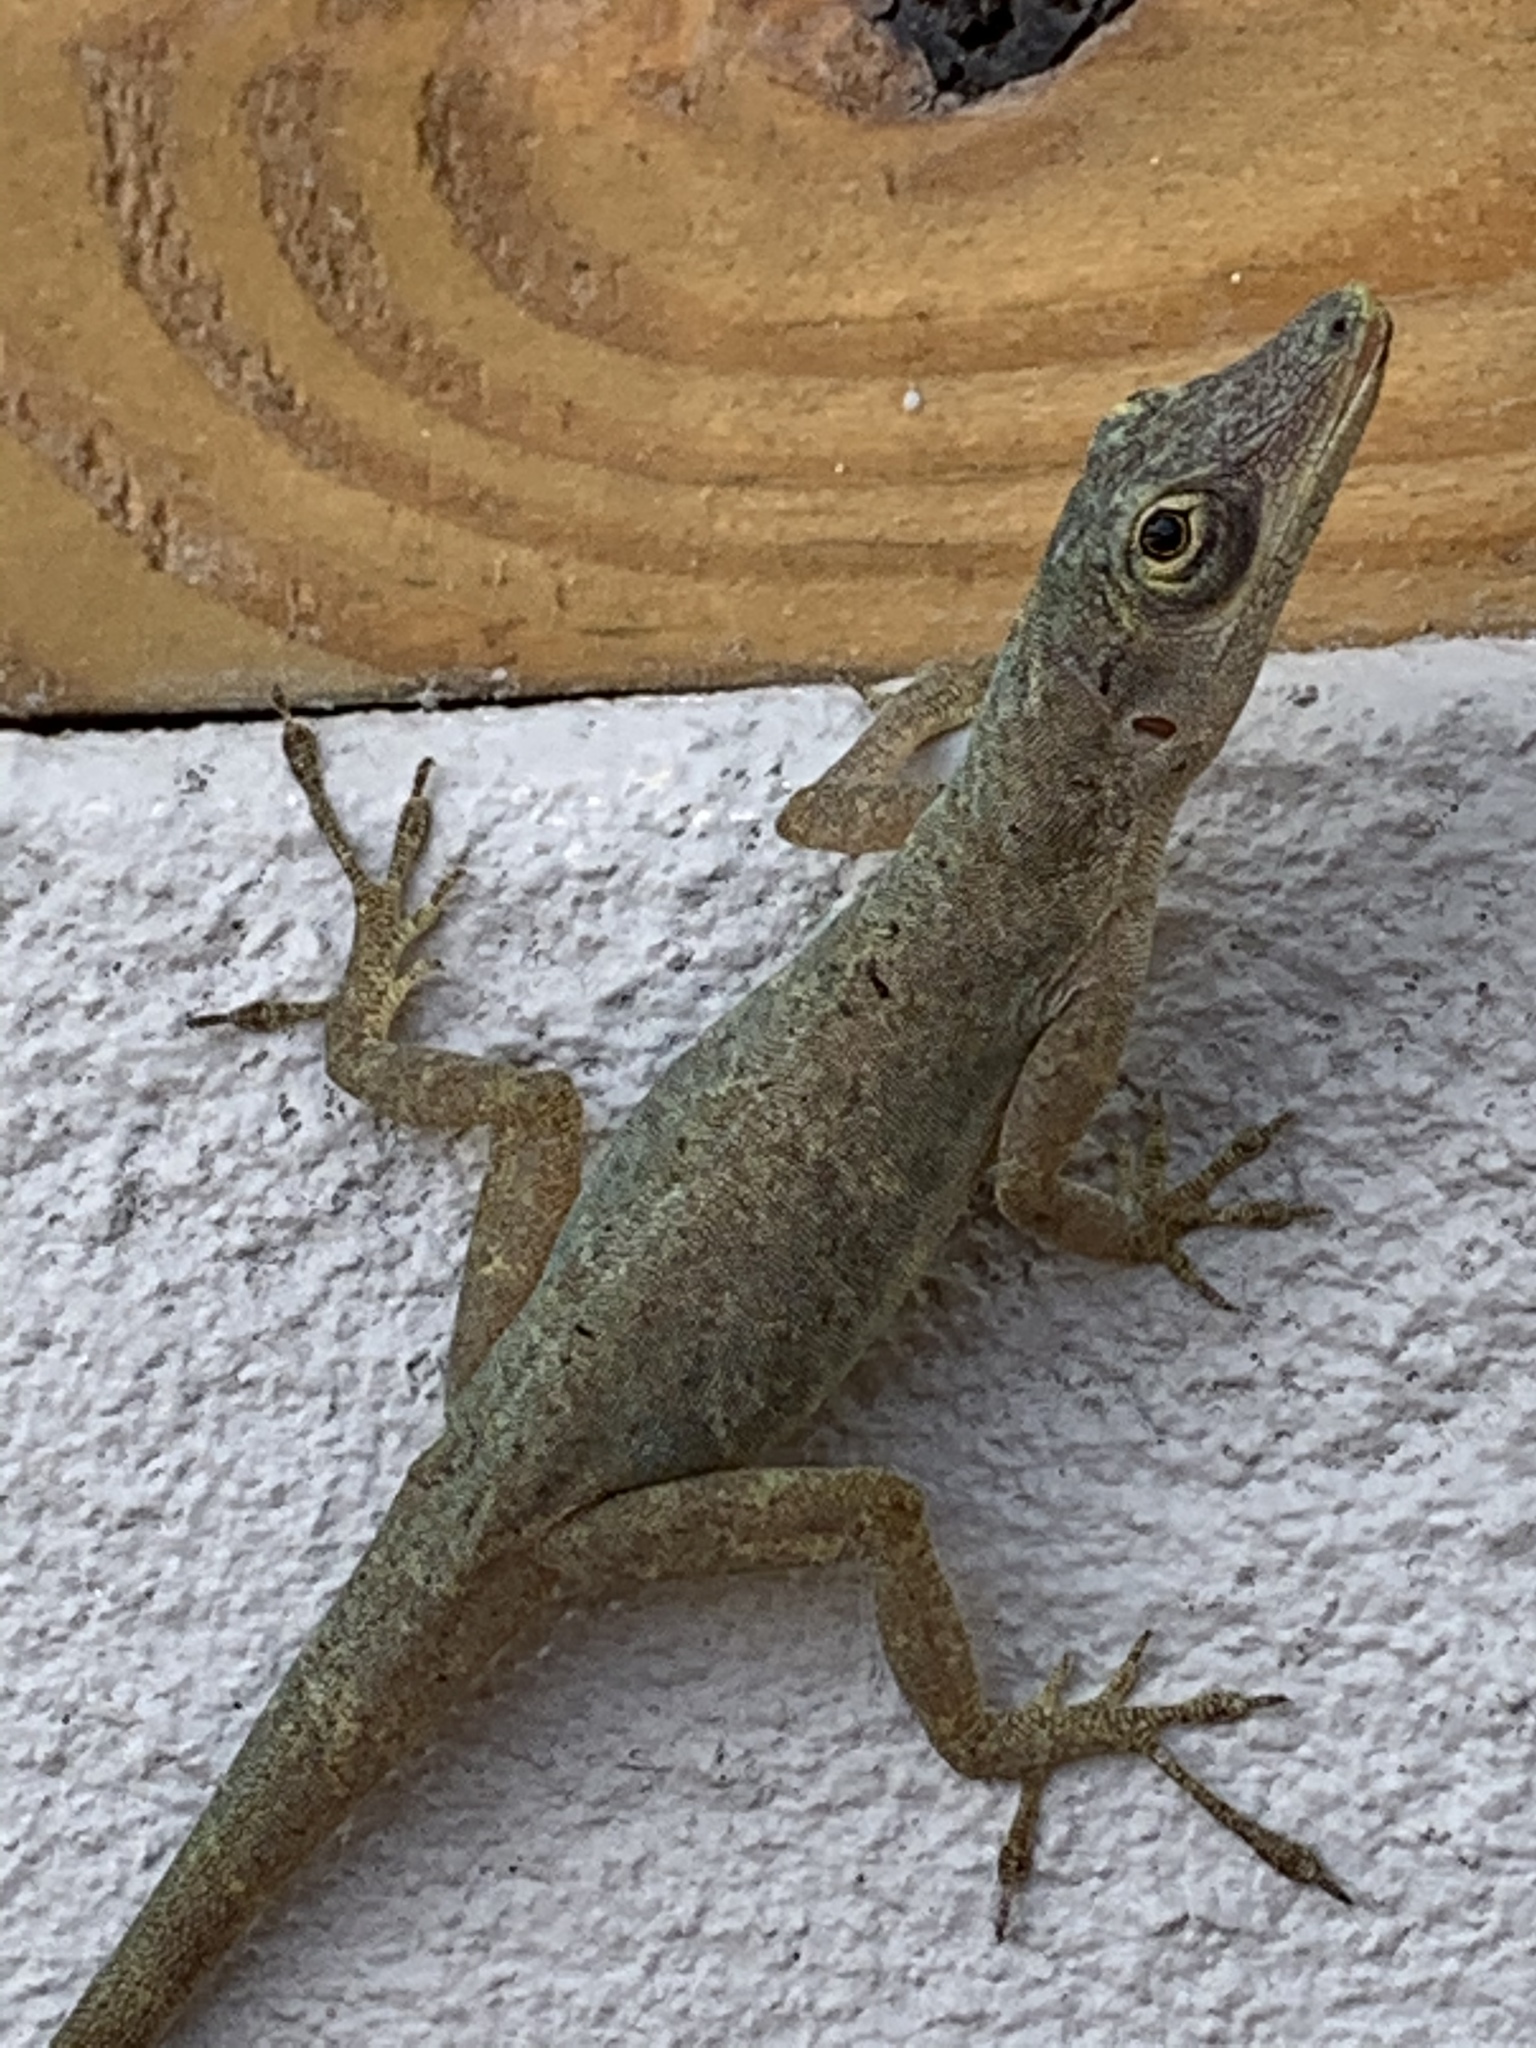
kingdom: Animalia
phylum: Chordata
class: Squamata
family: Dactyloidae
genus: Anolis
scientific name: Anolis aeneus
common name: Bronze anole
